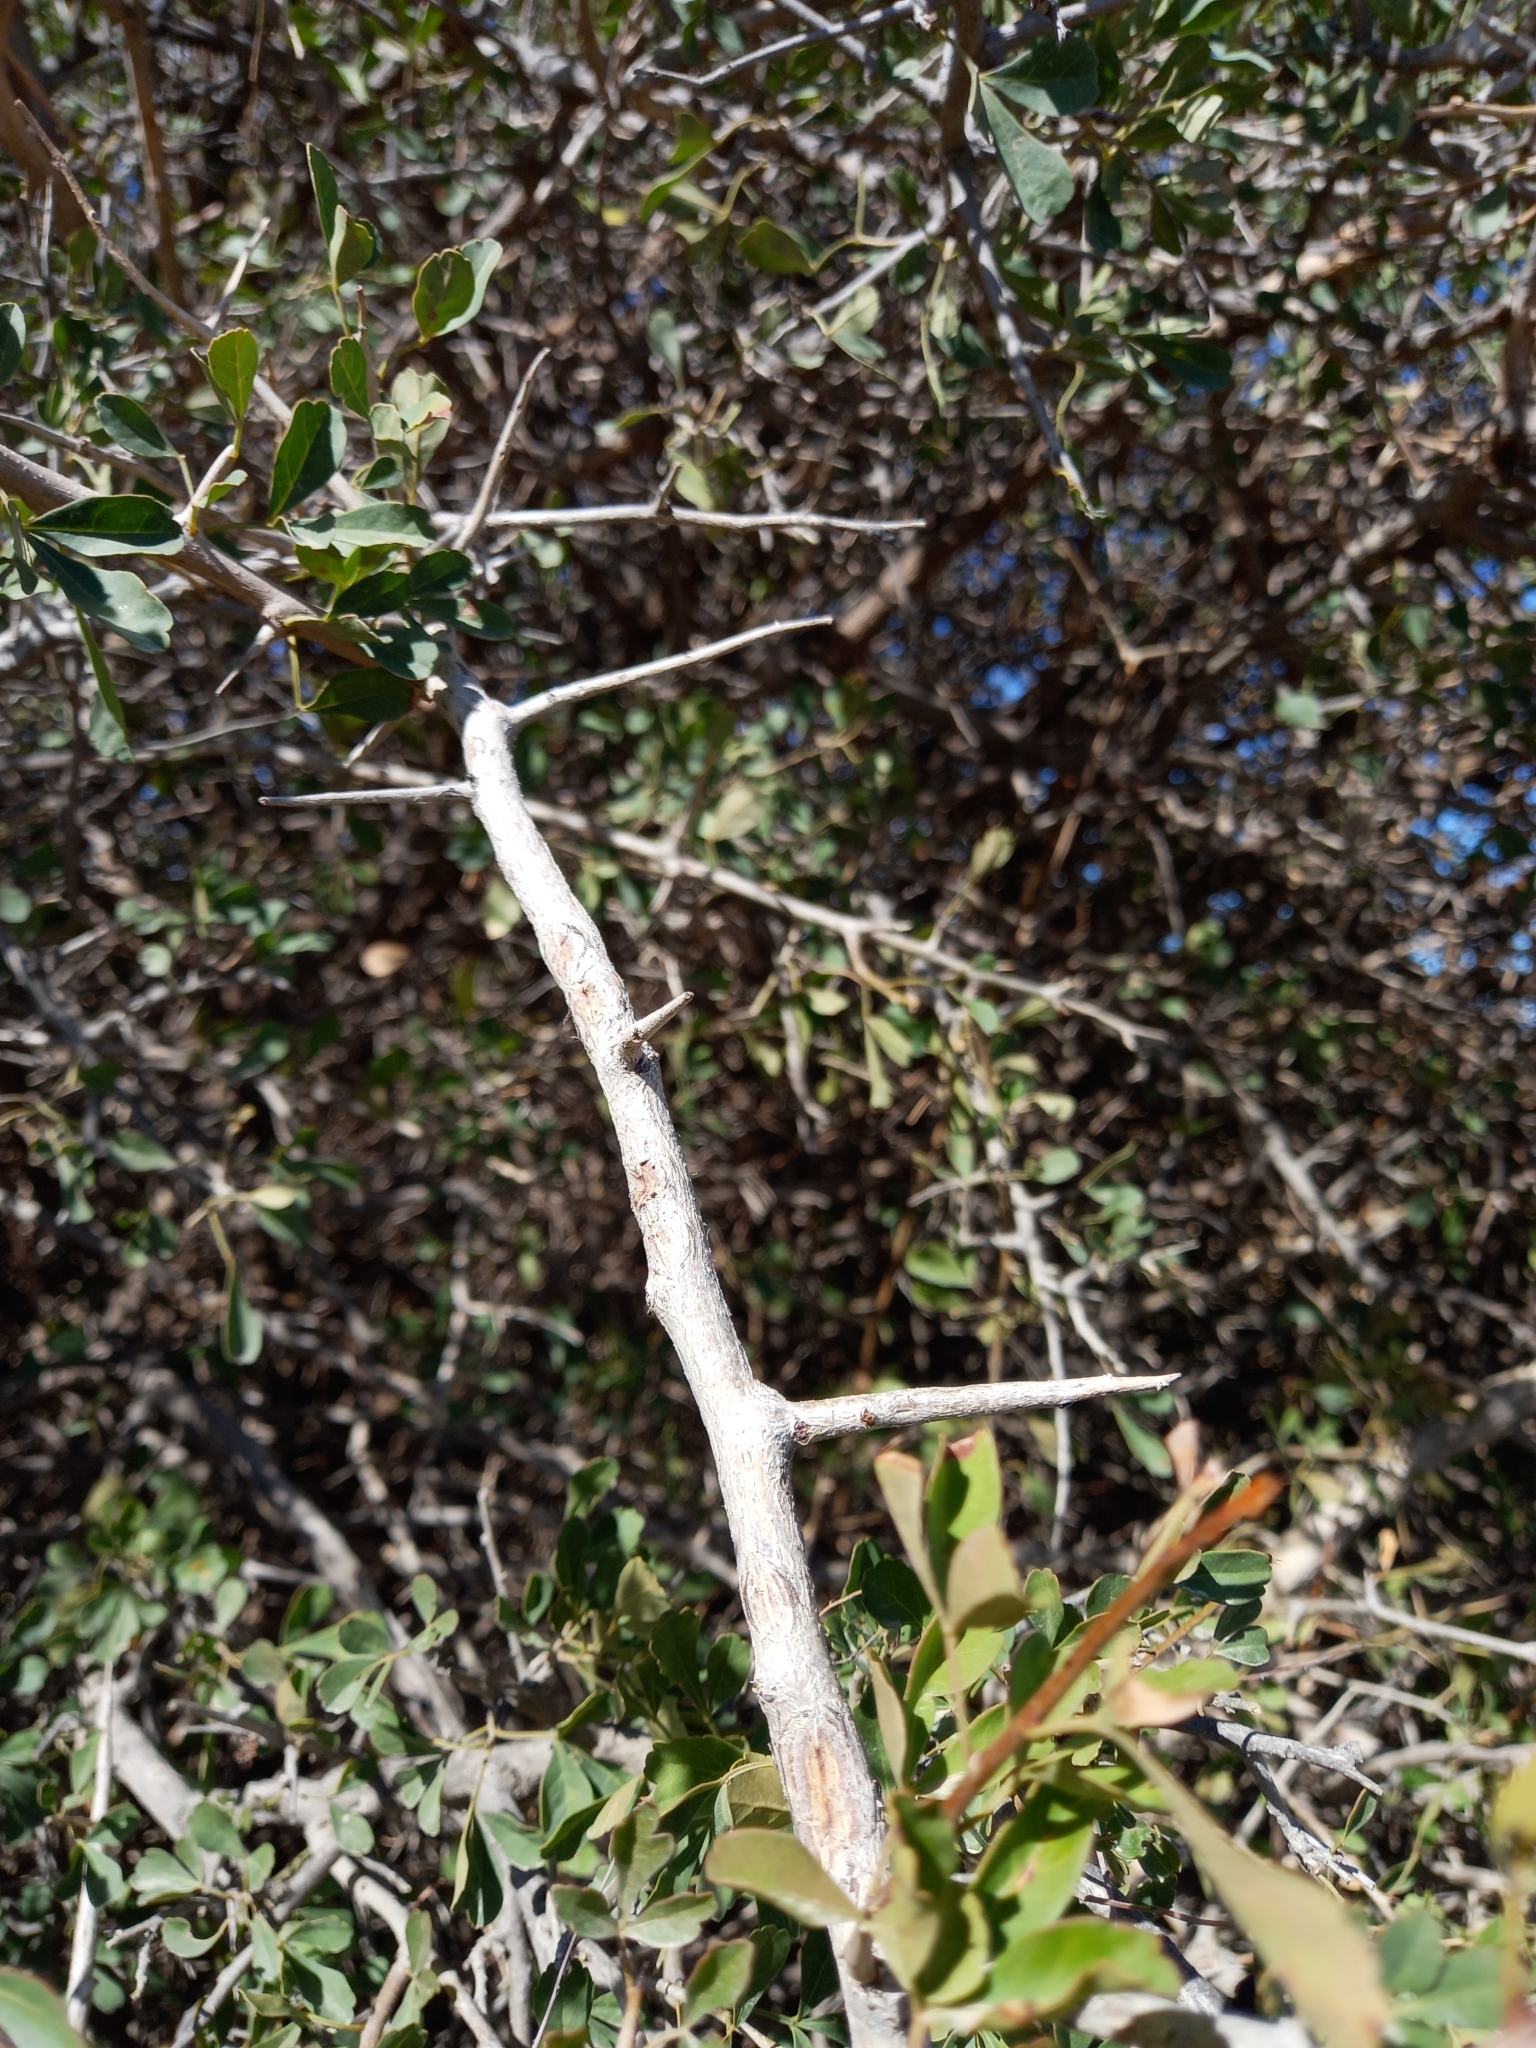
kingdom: Plantae
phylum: Tracheophyta
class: Magnoliopsida
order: Sapindales
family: Anacardiaceae
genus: Searsia
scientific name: Searsia longispina
